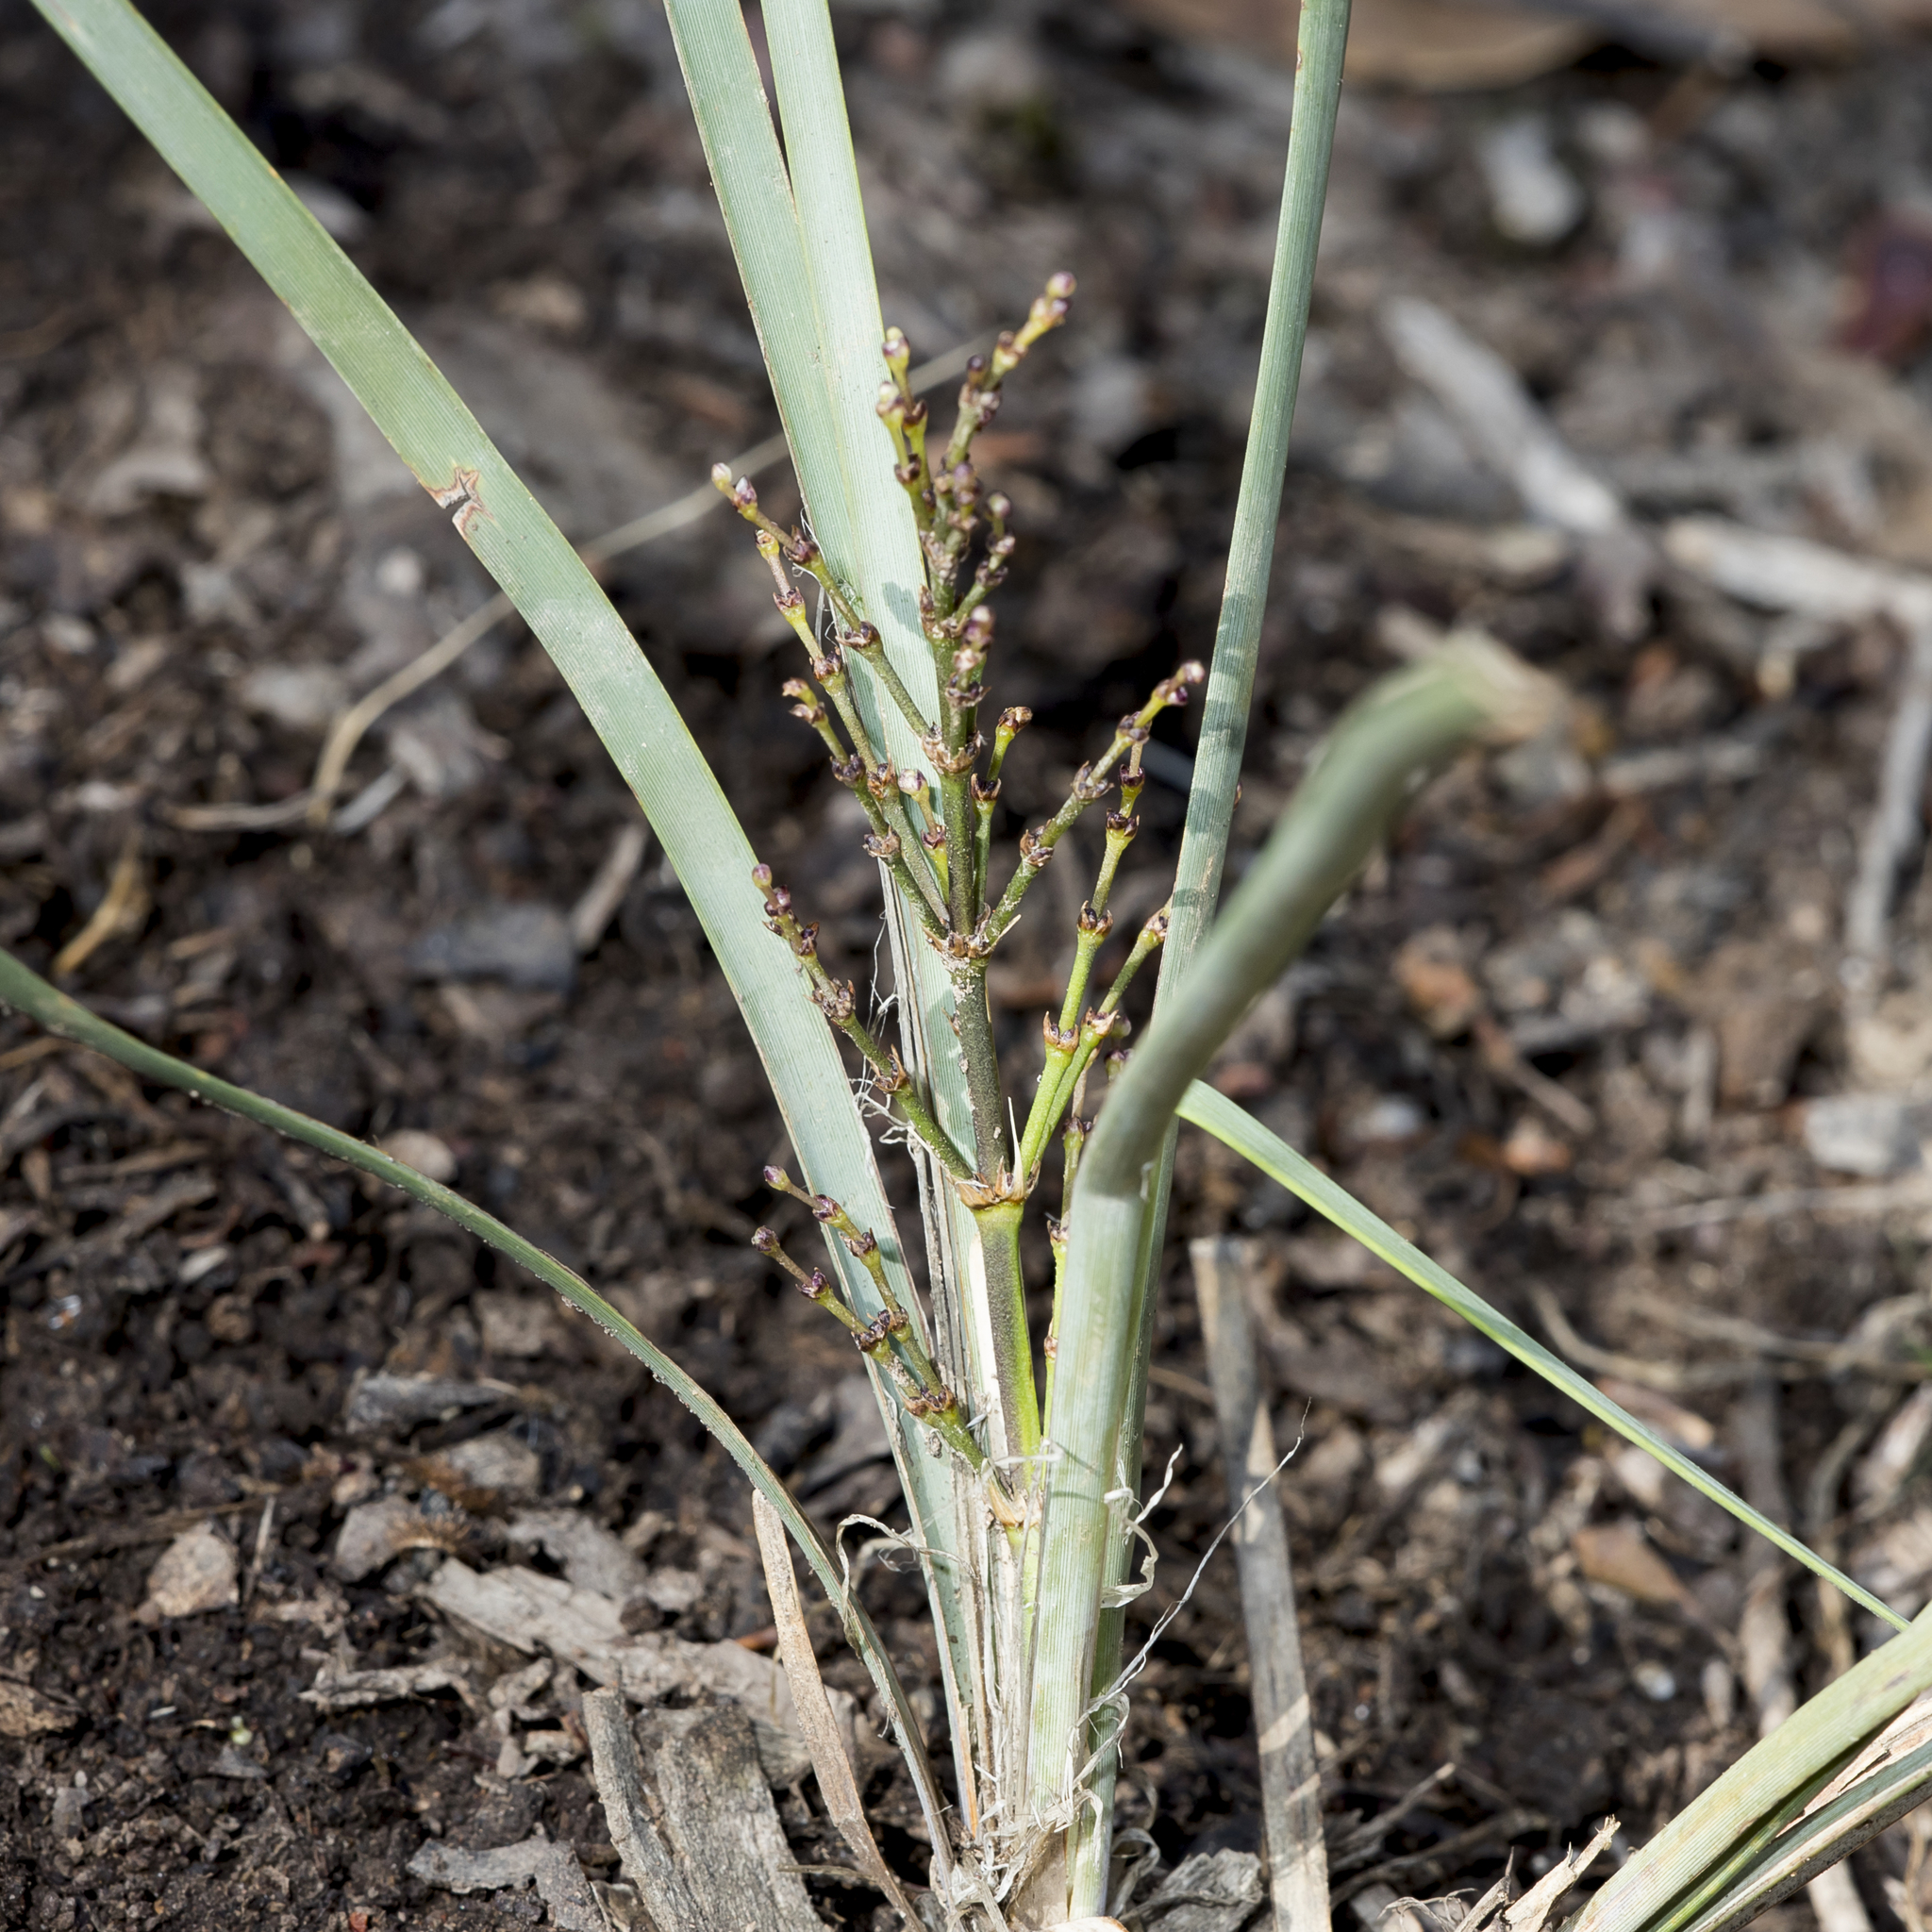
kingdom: Plantae
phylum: Tracheophyta
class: Liliopsida
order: Asparagales
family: Asparagaceae
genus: Lomandra
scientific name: Lomandra multiflora
